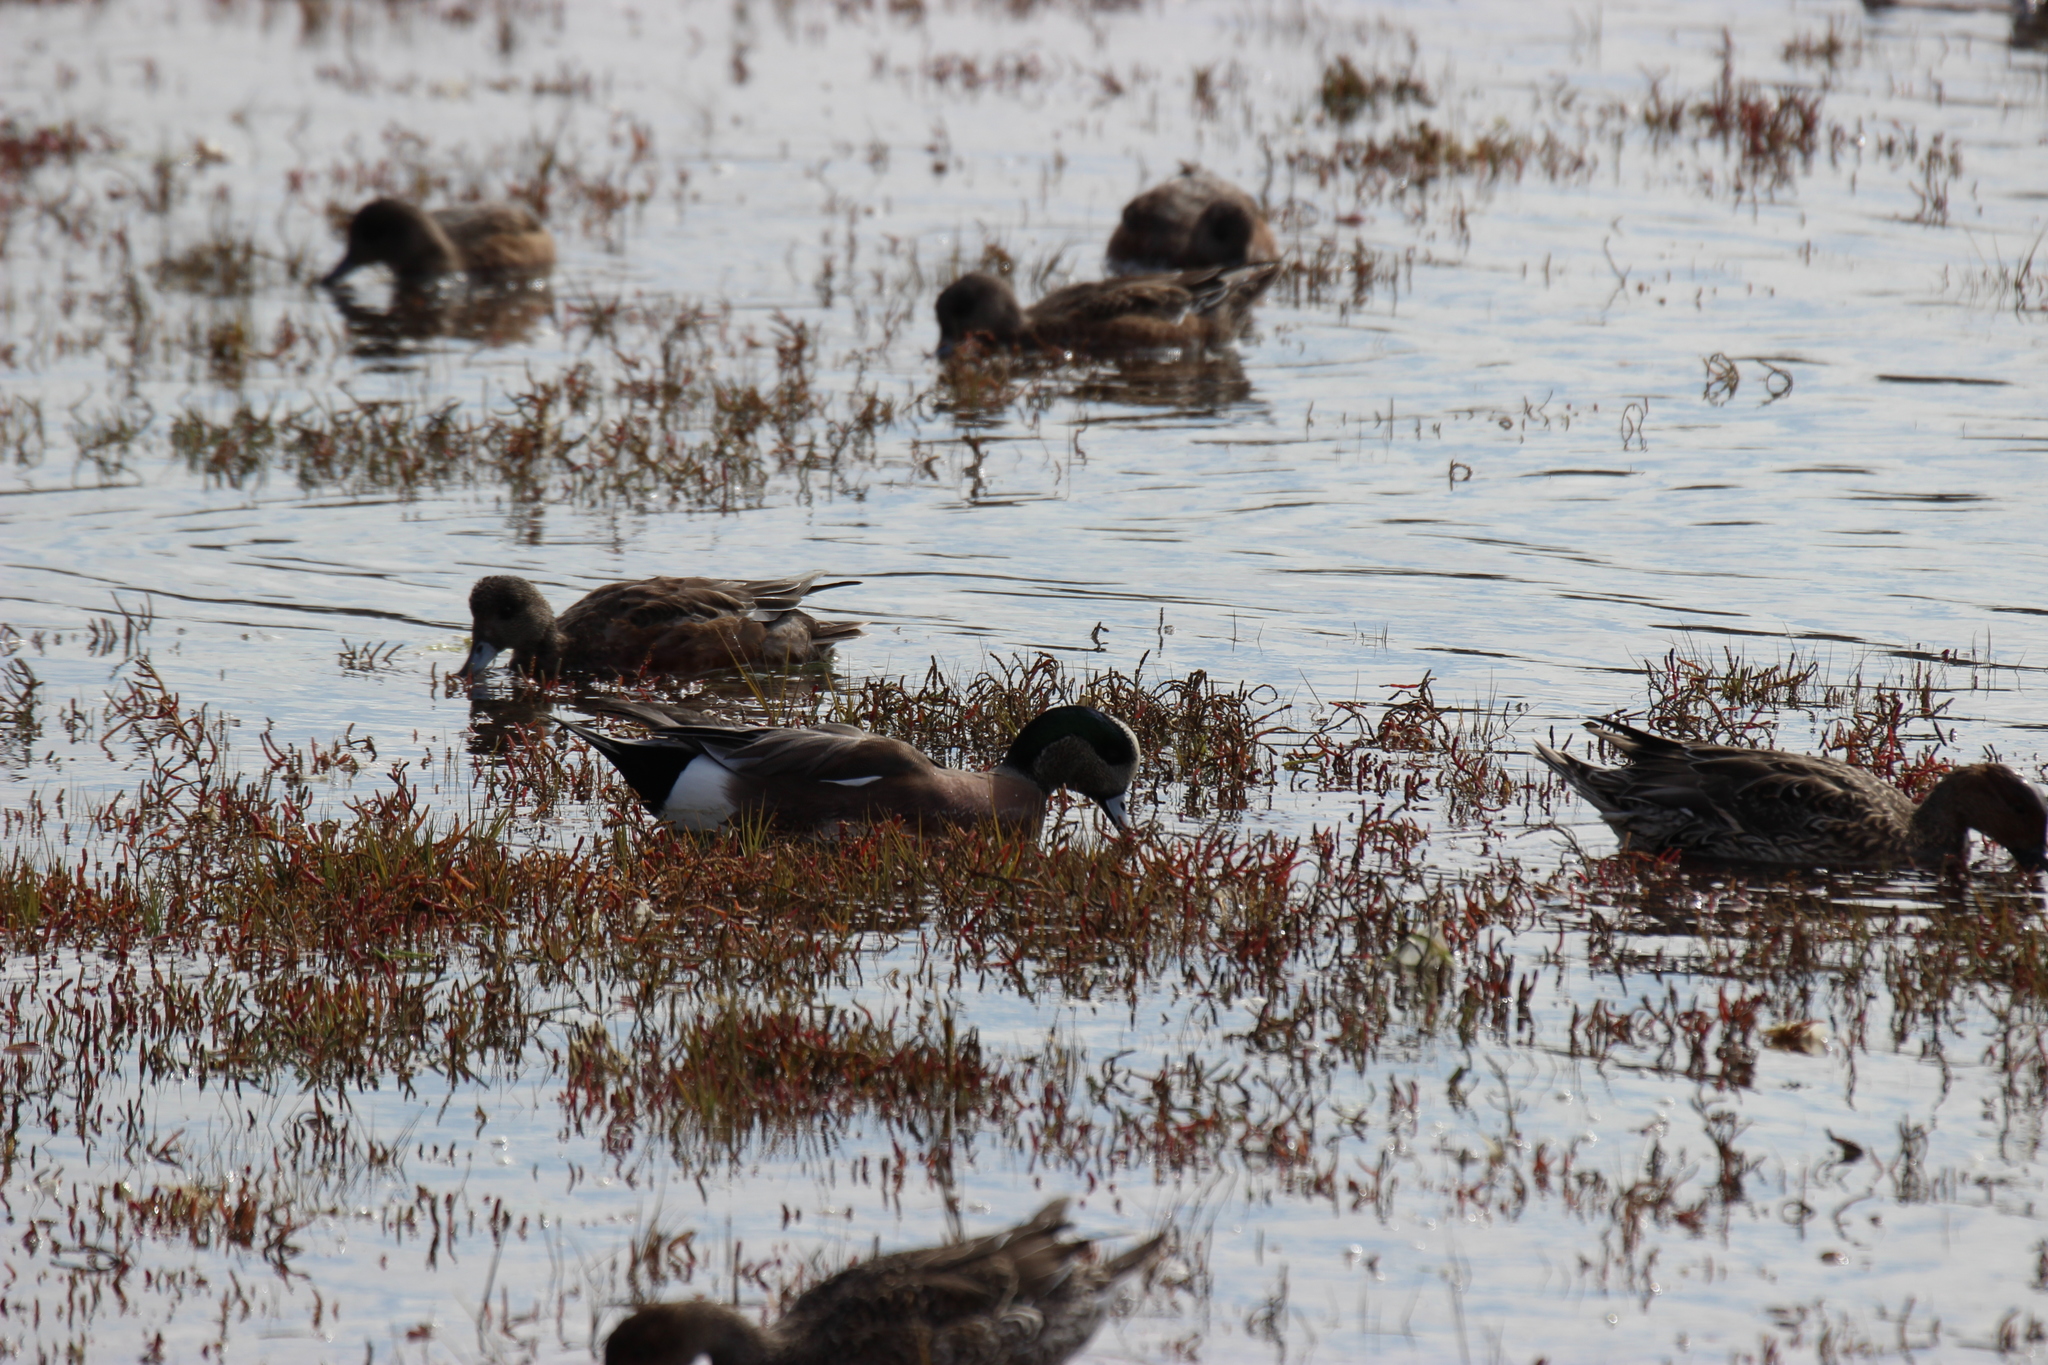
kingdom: Animalia
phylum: Chordata
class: Aves
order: Anseriformes
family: Anatidae
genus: Mareca
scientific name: Mareca americana
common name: American wigeon
